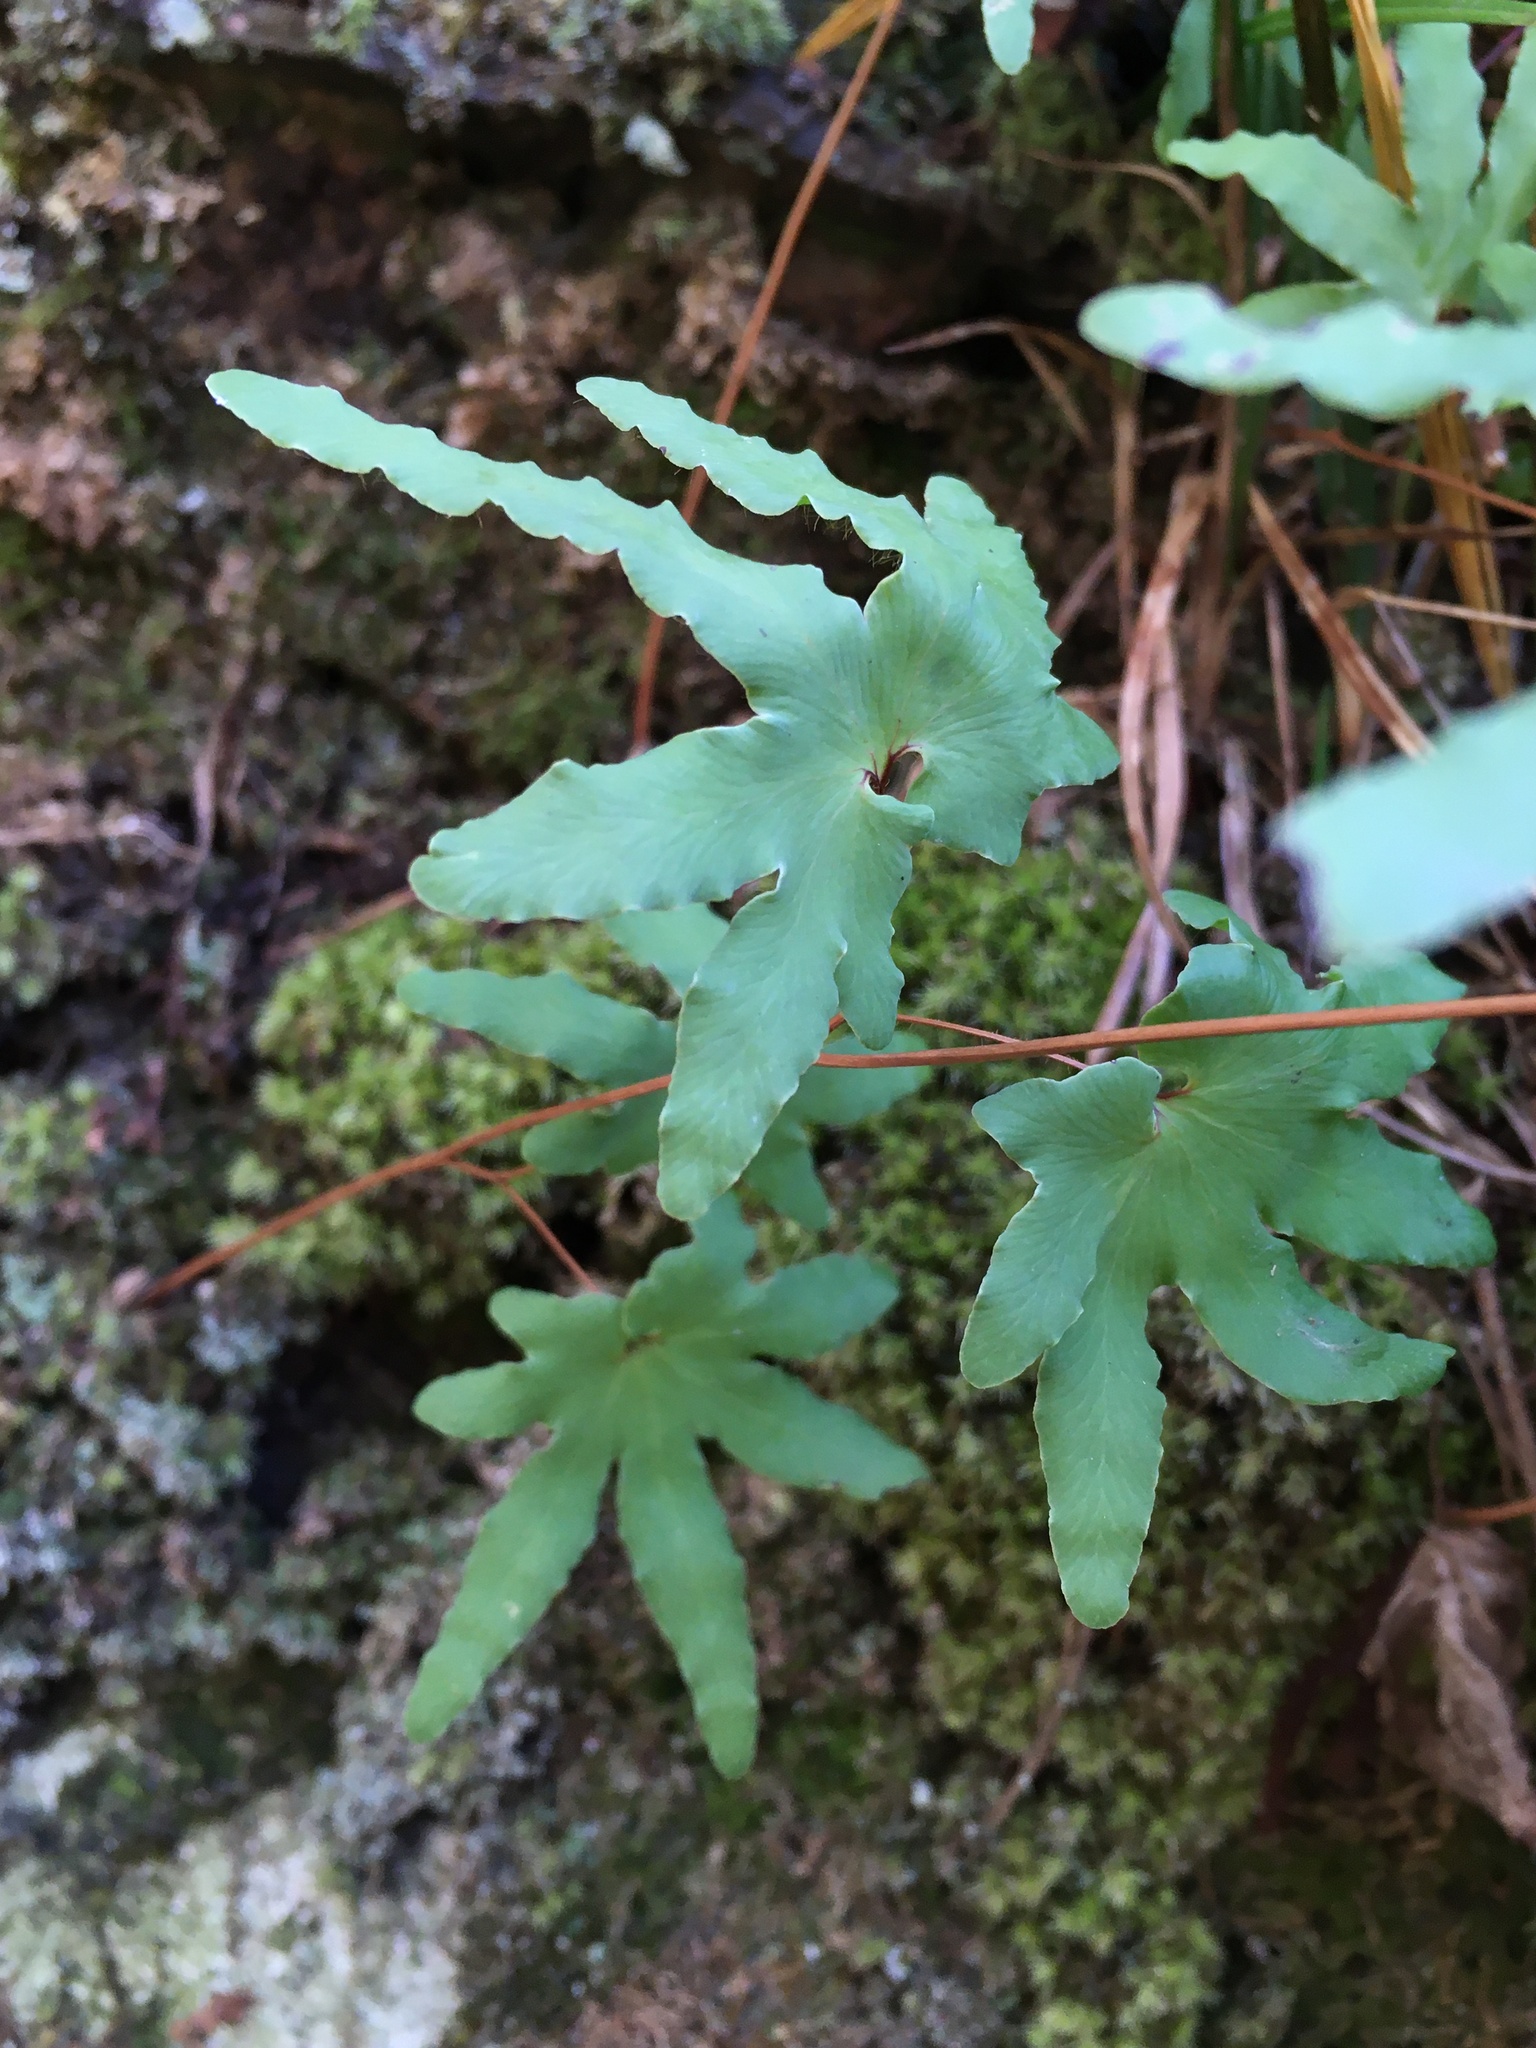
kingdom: Plantae
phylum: Tracheophyta
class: Polypodiopsida
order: Schizaeales
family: Lygodiaceae
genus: Lygodium
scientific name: Lygodium palmatum
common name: American climbing fern
